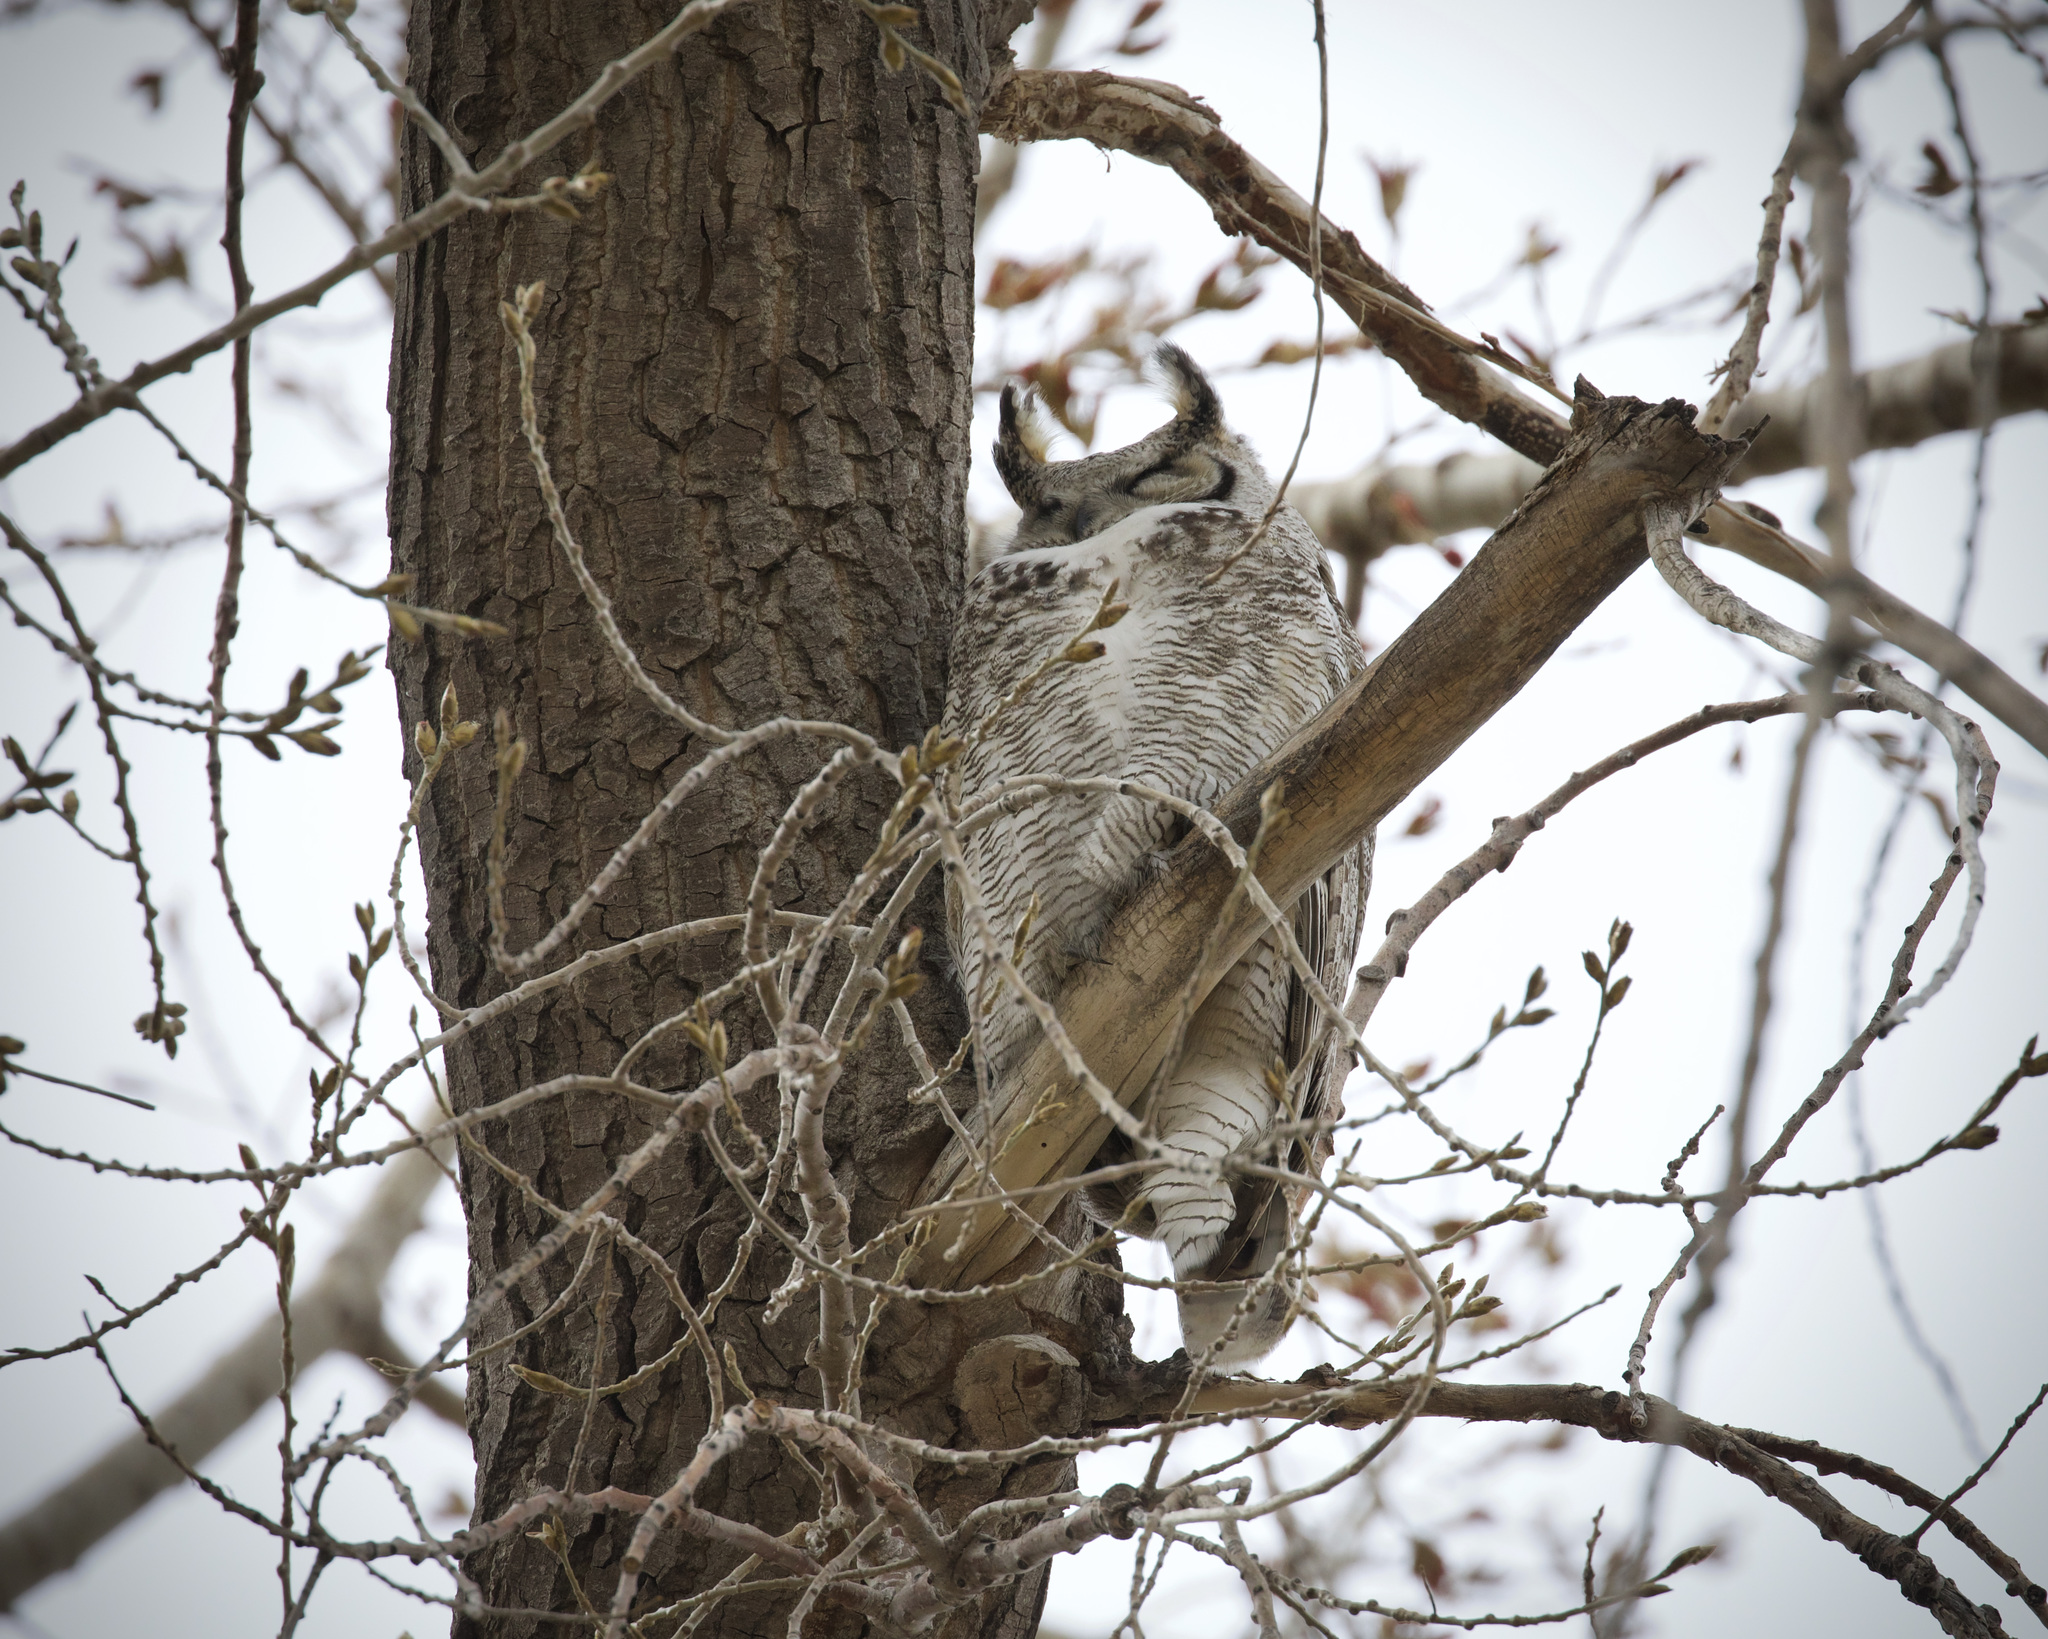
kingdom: Animalia
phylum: Chordata
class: Aves
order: Strigiformes
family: Strigidae
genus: Bubo
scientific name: Bubo virginianus
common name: Great horned owl
